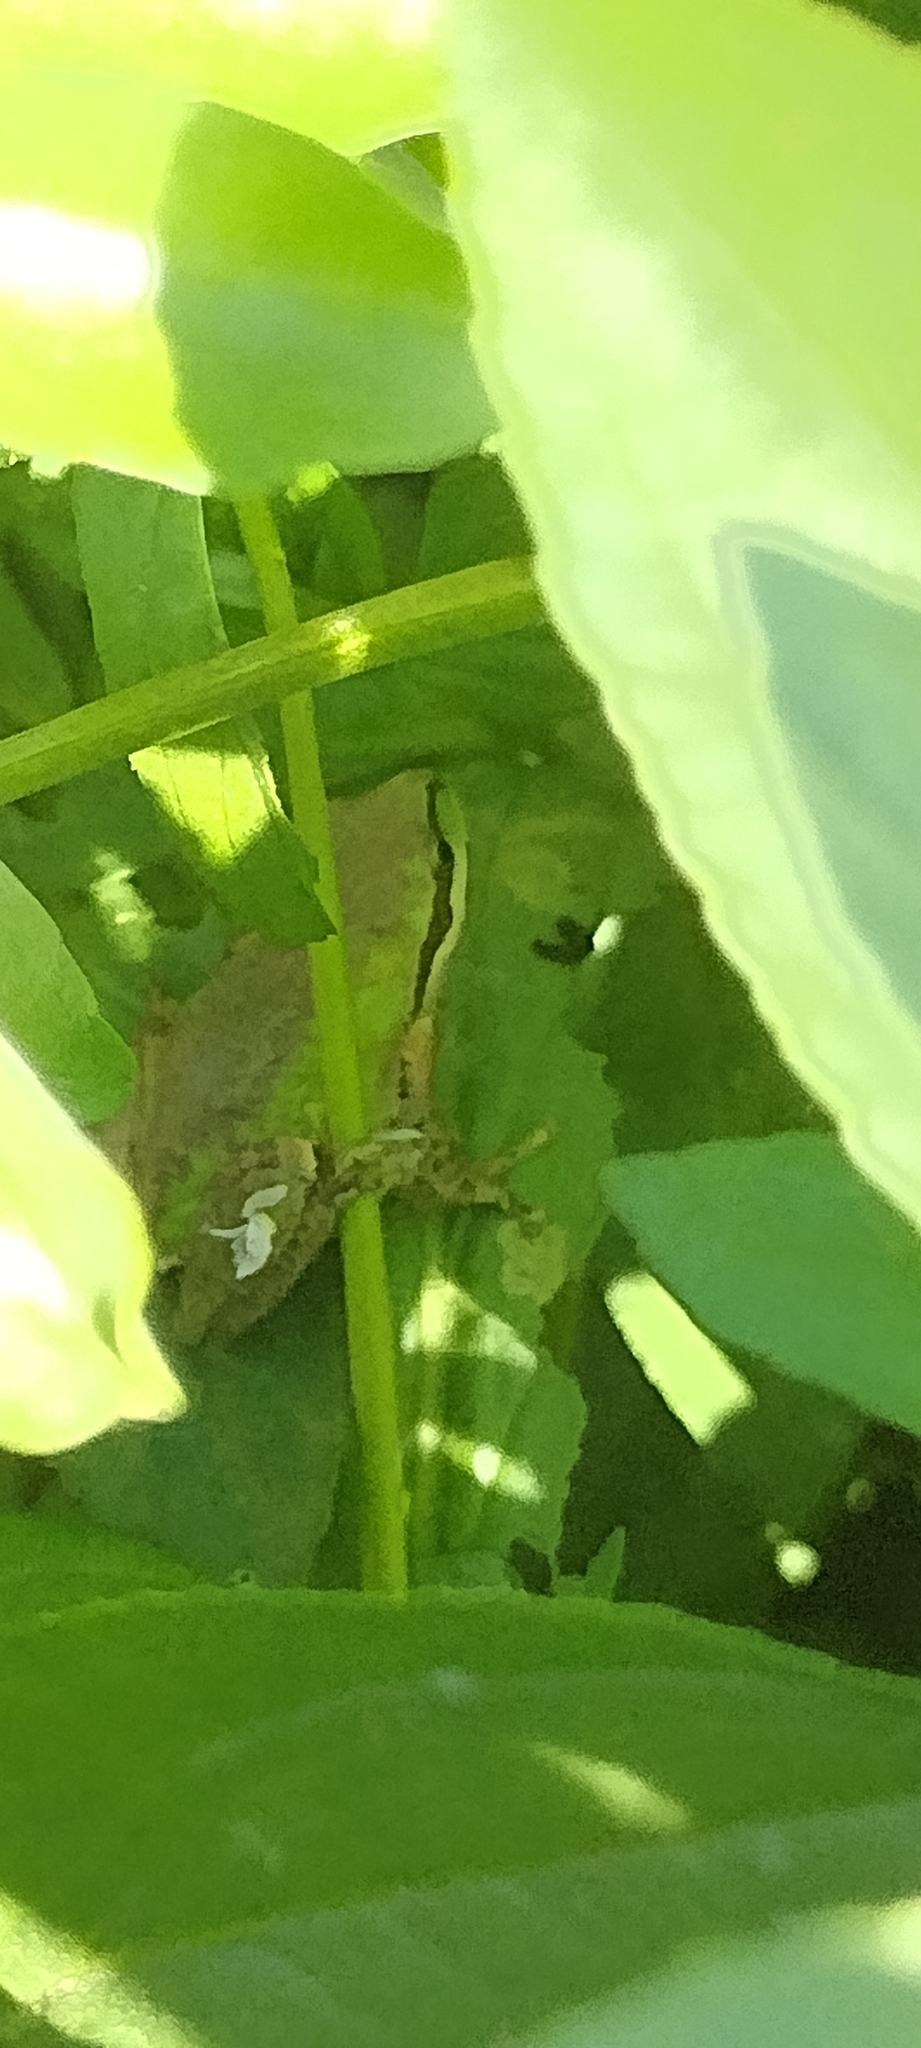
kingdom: Animalia
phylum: Chordata
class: Amphibia
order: Anura
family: Hylidae
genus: Pseudacris
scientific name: Pseudacris regilla
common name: Pacific chorus frog
